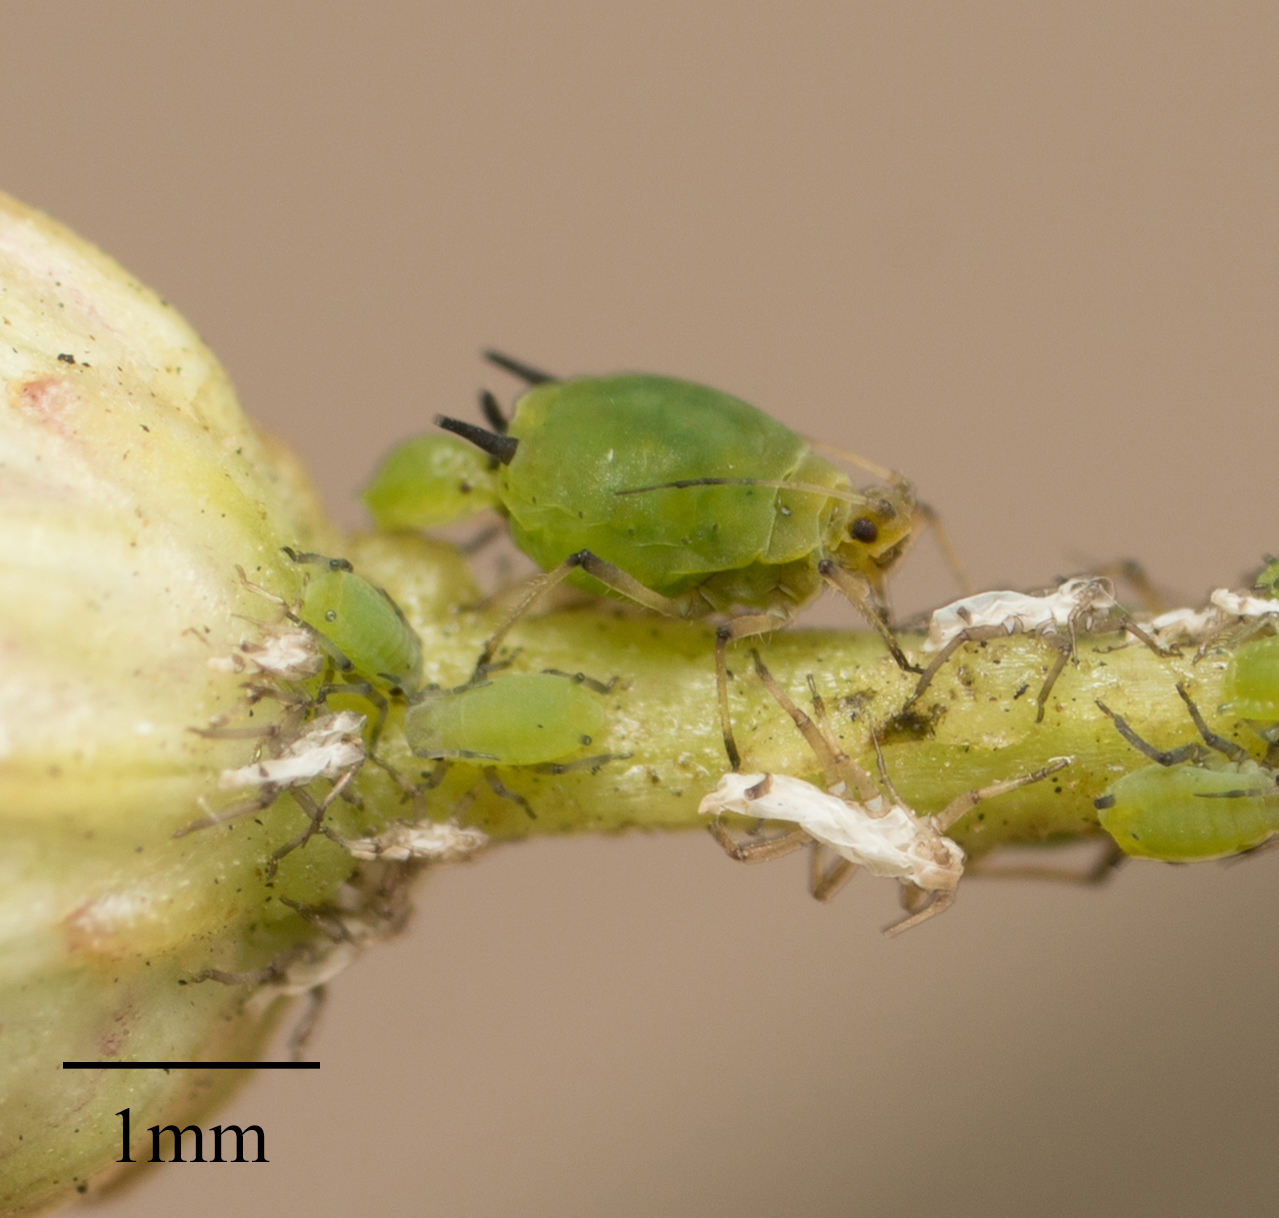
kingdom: Animalia
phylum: Arthropoda
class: Insecta
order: Hemiptera
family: Aphididae
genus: Aphis
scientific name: Aphis spiraecola
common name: Spirea aphid
